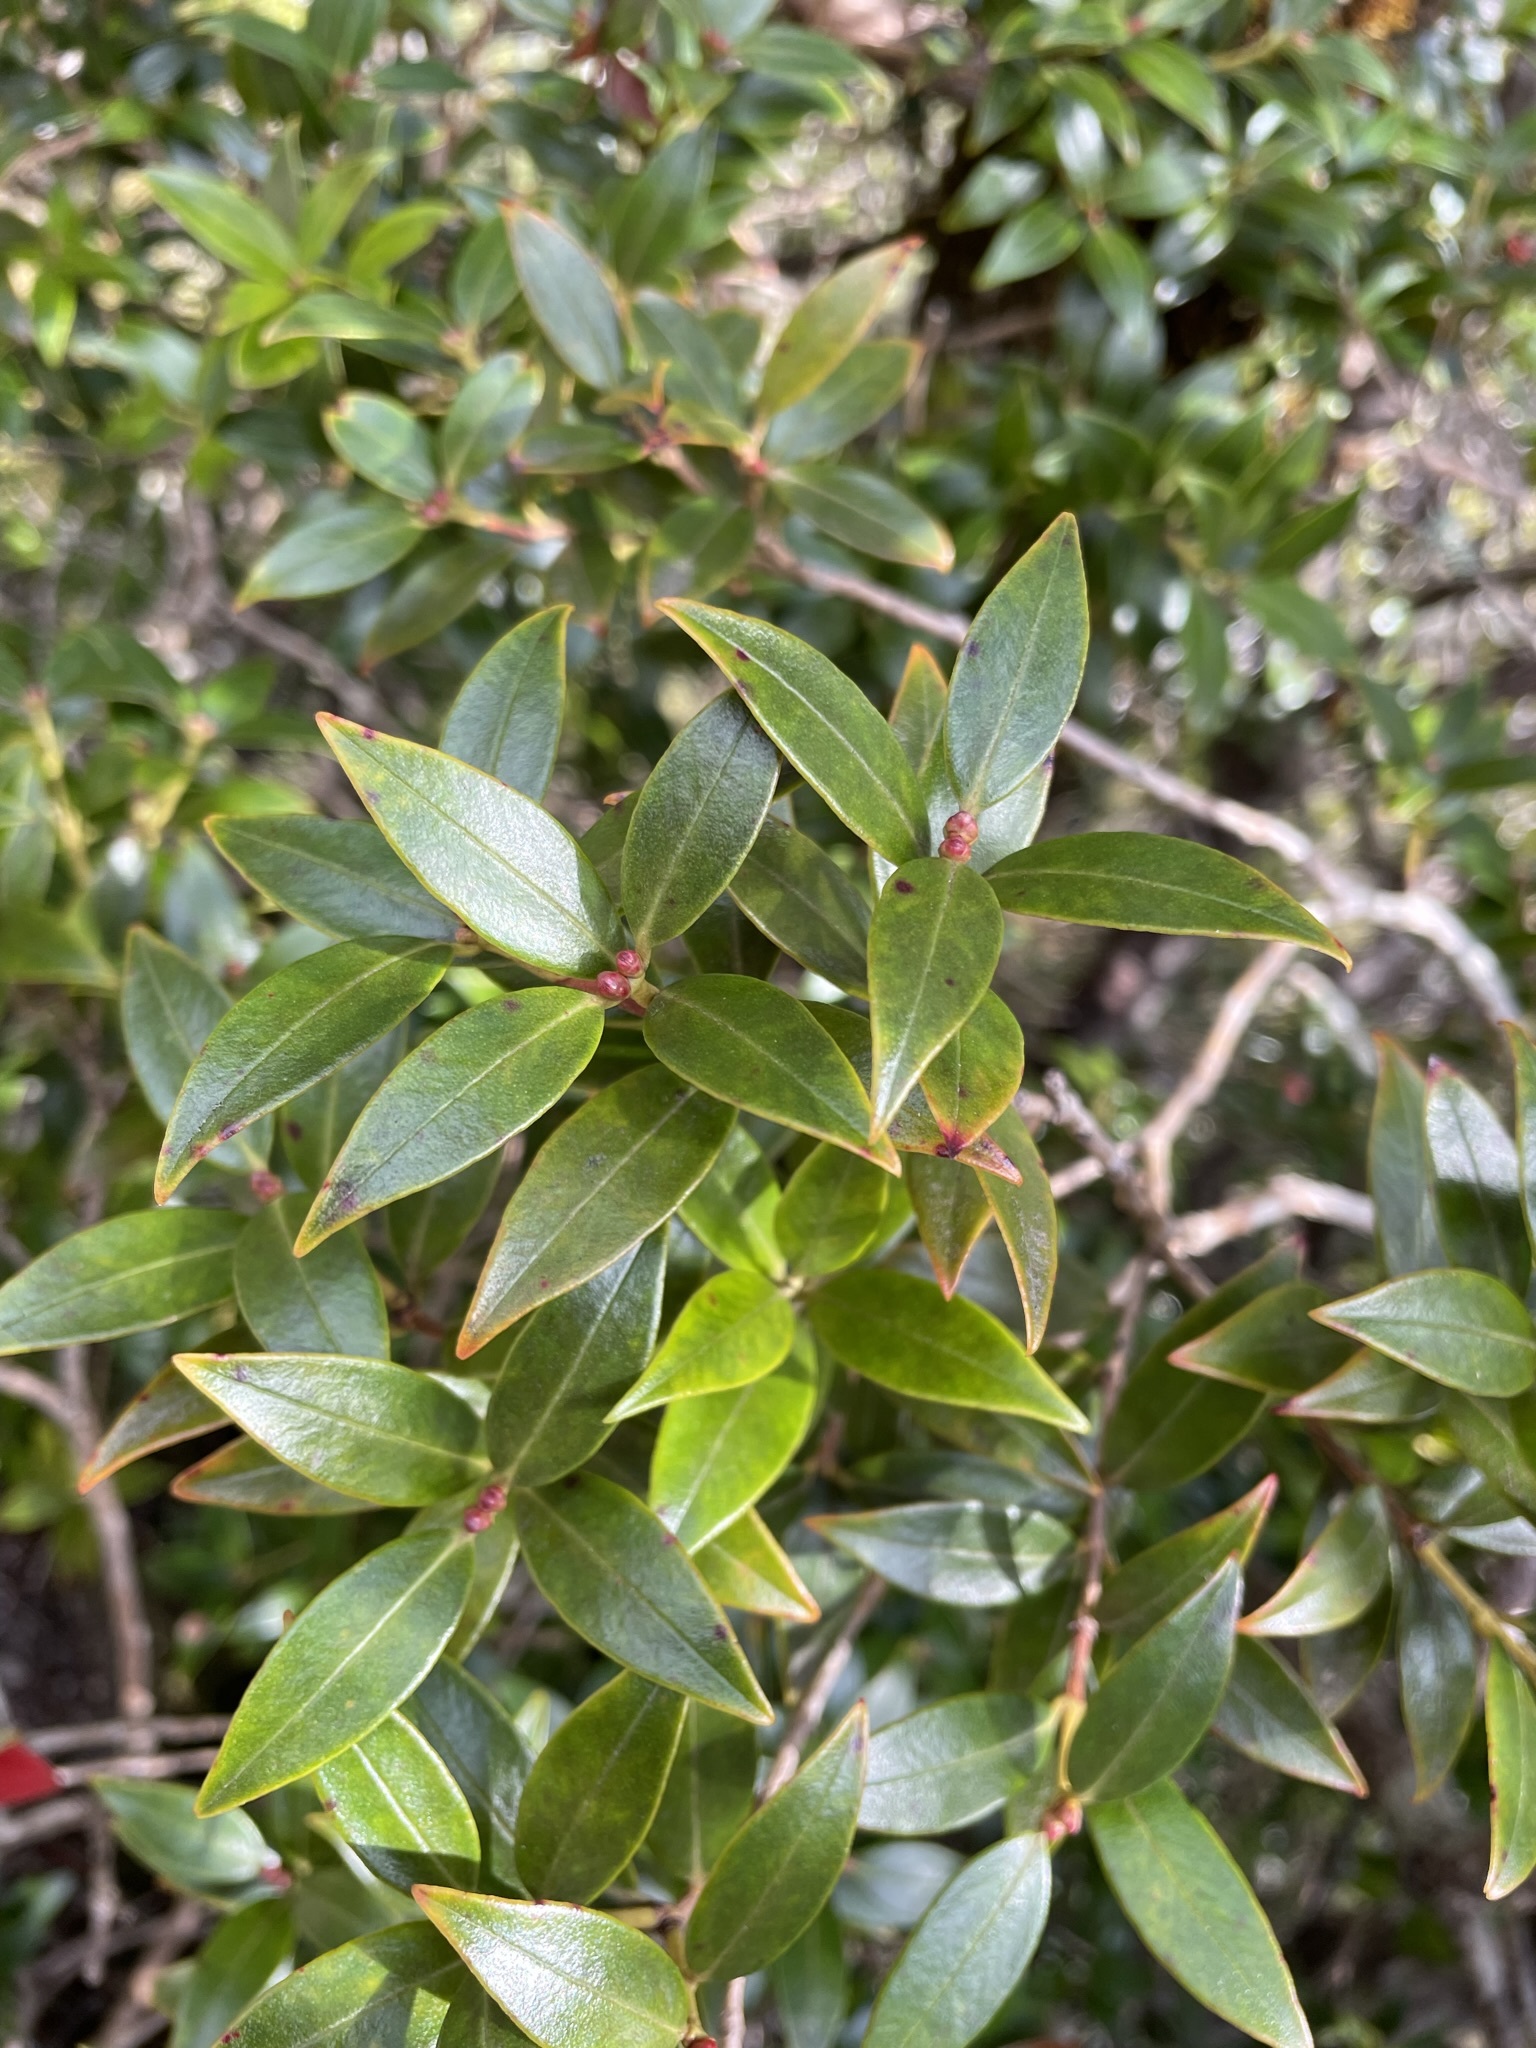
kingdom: Plantae
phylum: Tracheophyta
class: Magnoliopsida
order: Myrtales
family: Myrtaceae
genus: Metrosideros
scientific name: Metrosideros umbellata
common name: Southern rata
